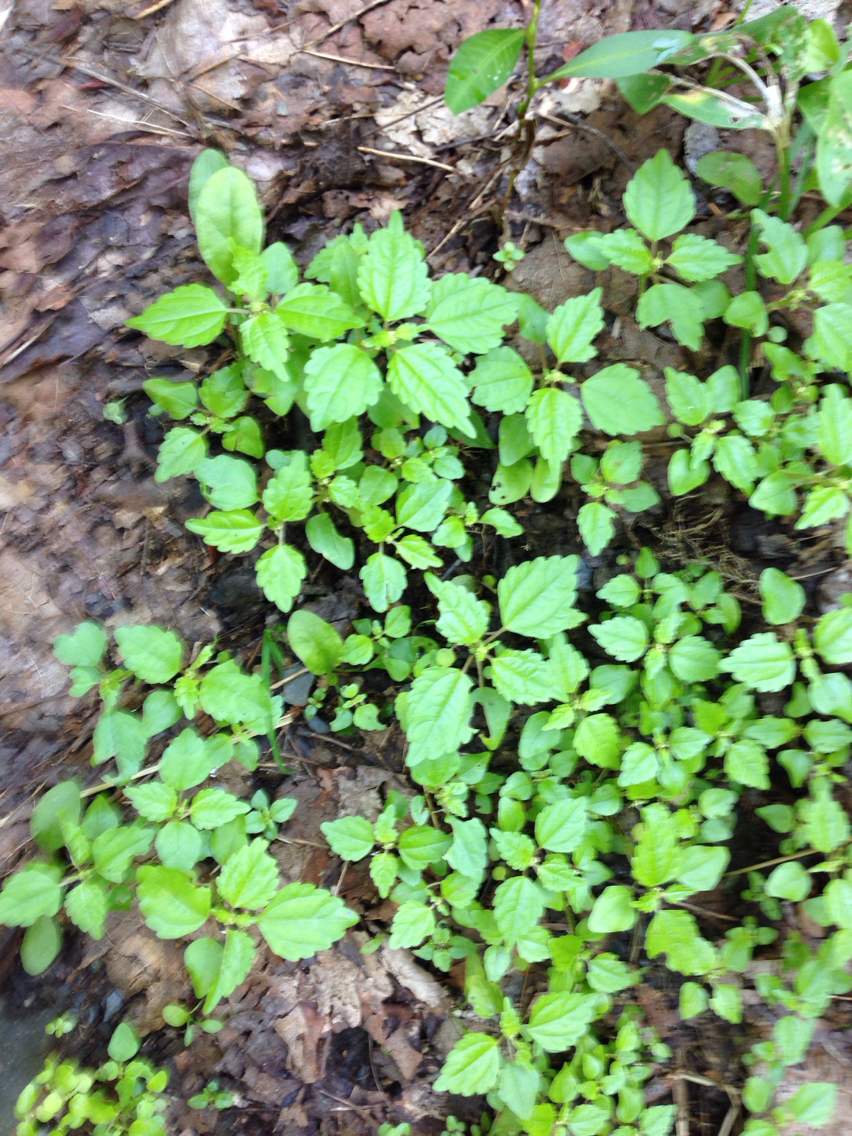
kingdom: Plantae
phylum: Tracheophyta
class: Magnoliopsida
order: Rosales
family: Urticaceae
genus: Pilea
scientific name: Pilea pumila
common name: Clearweed
